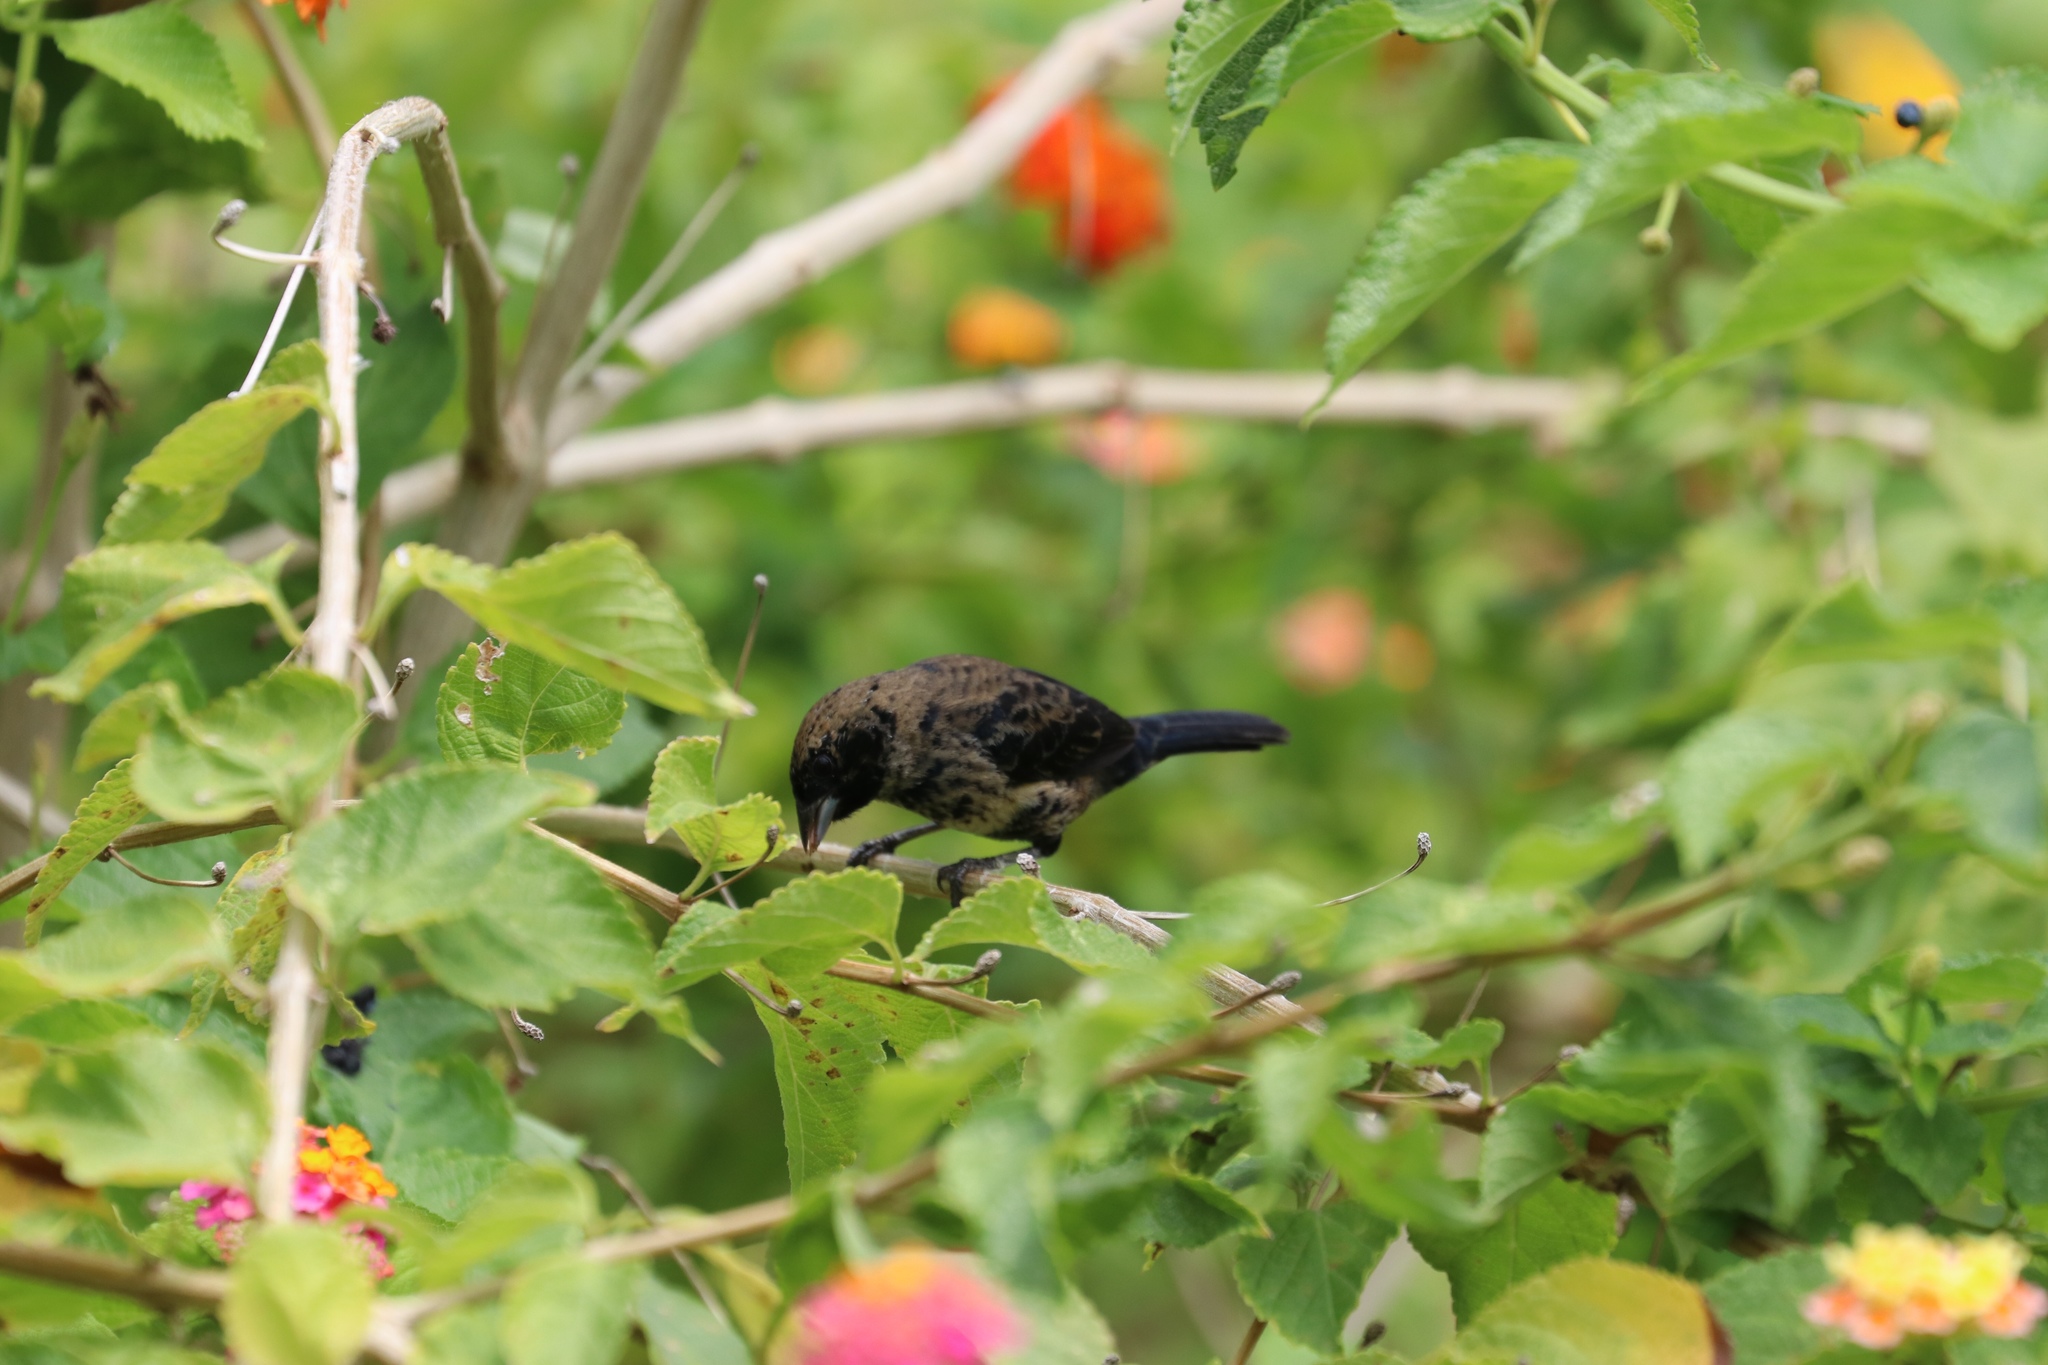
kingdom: Animalia
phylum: Chordata
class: Aves
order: Passeriformes
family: Thraupidae
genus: Volatinia
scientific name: Volatinia jacarina
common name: Blue-black grassquit
